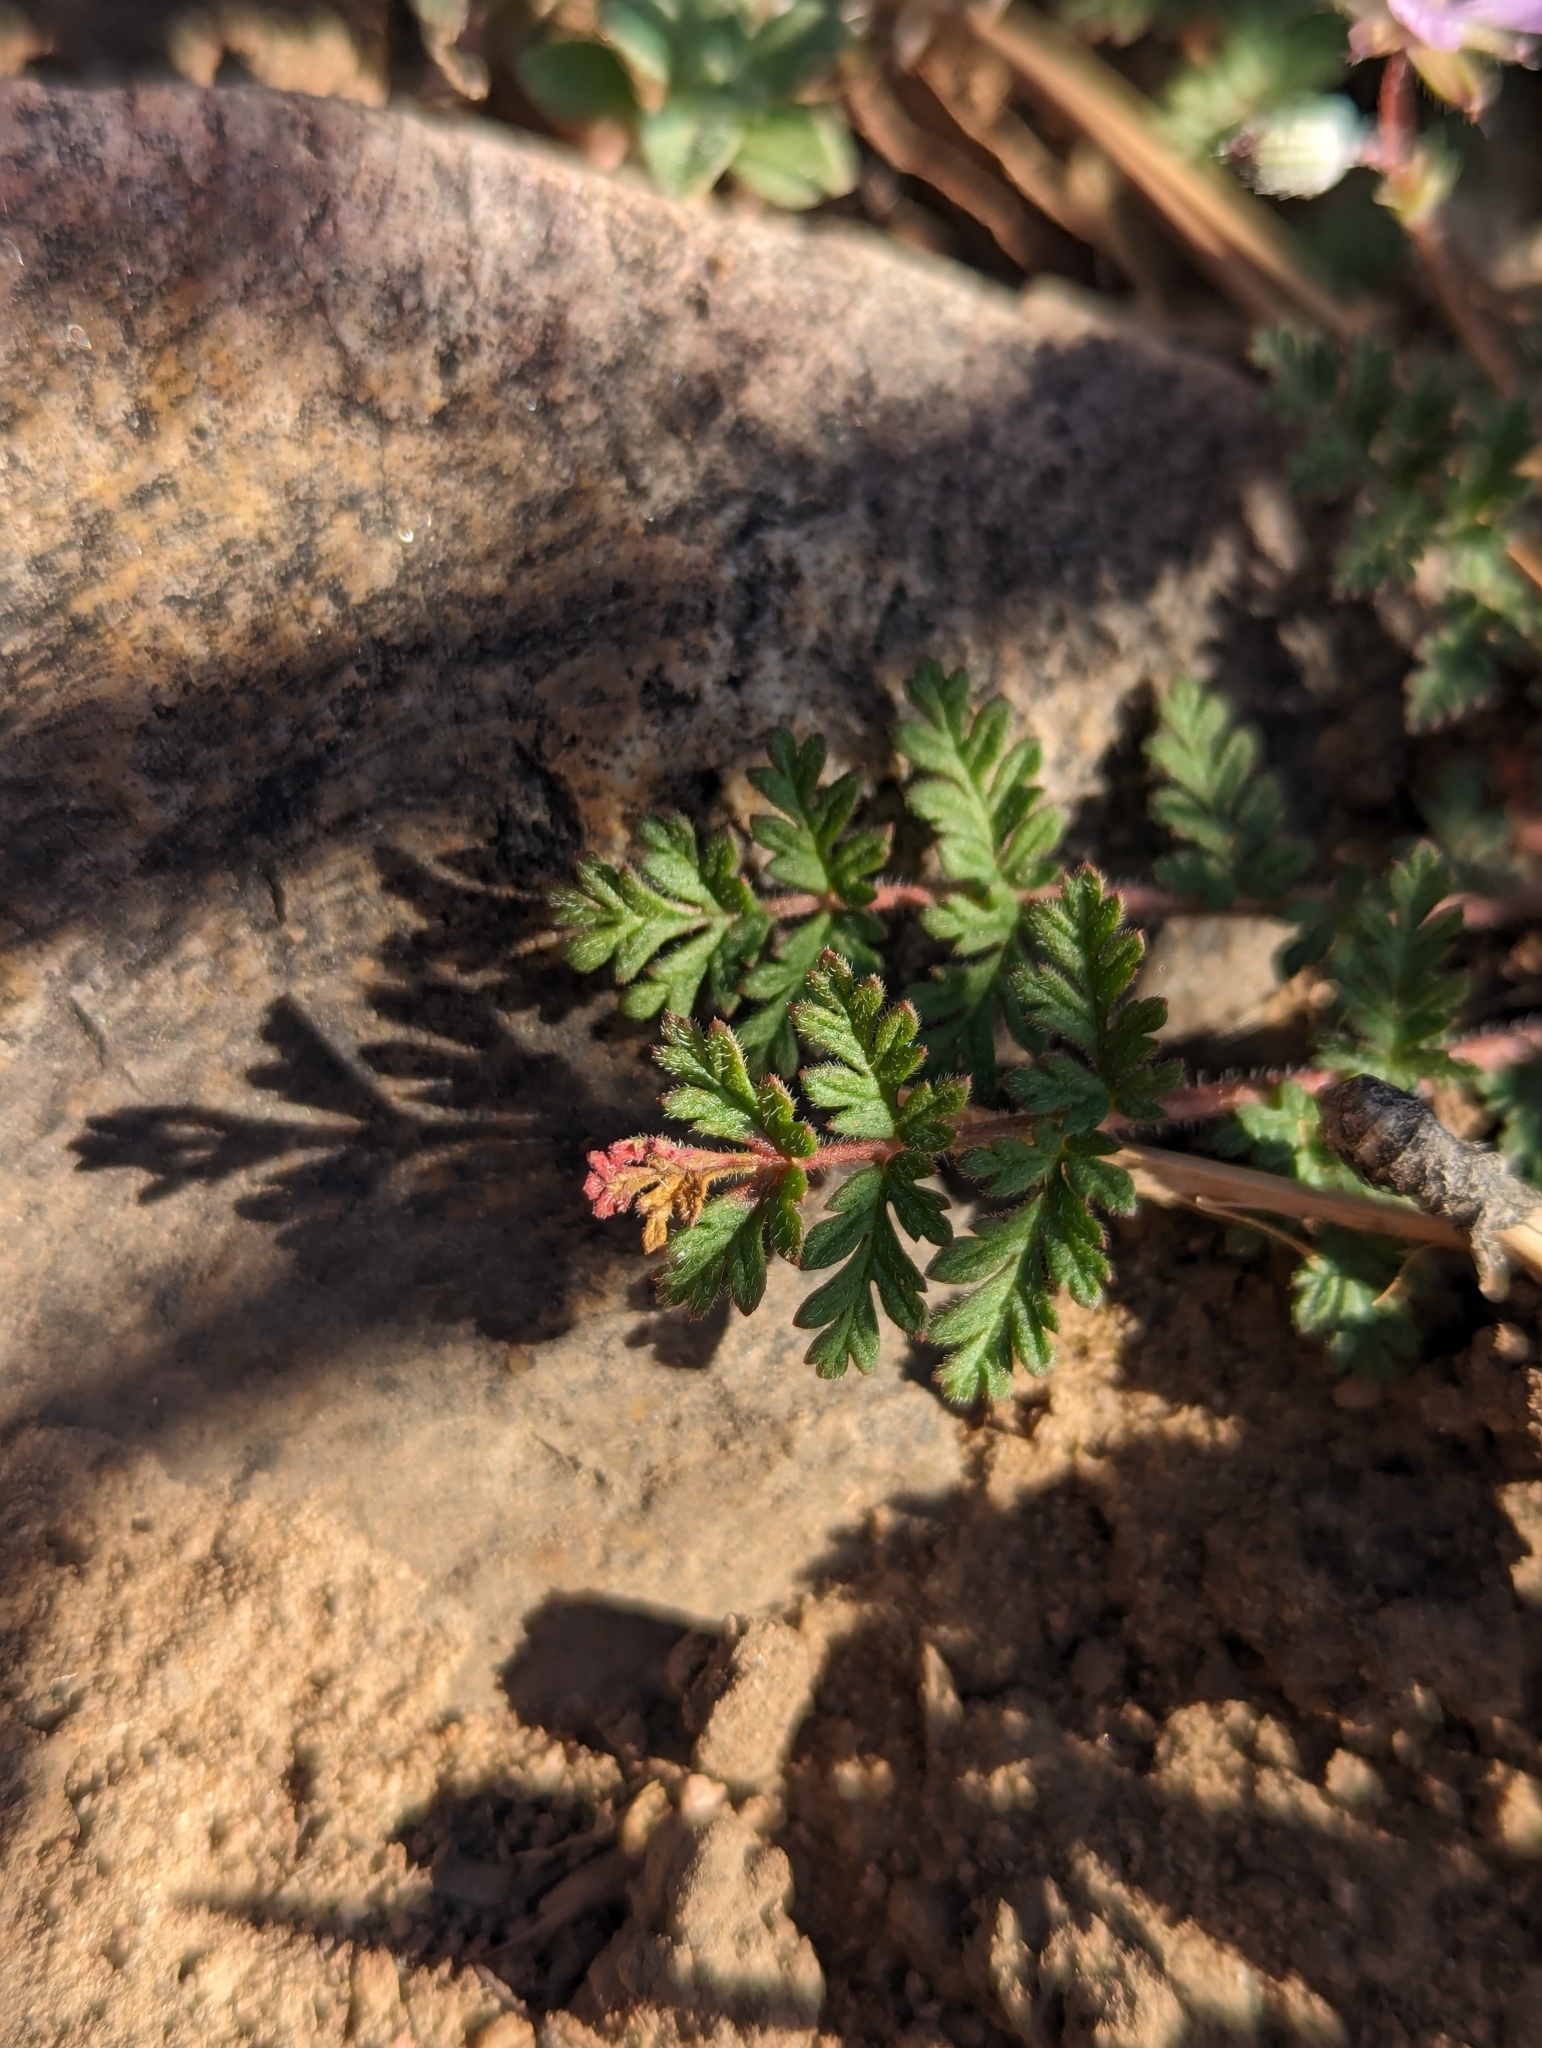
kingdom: Plantae
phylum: Tracheophyta
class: Magnoliopsida
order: Geraniales
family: Geraniaceae
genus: Erodium
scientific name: Erodium cicutarium
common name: Common stork's-bill
